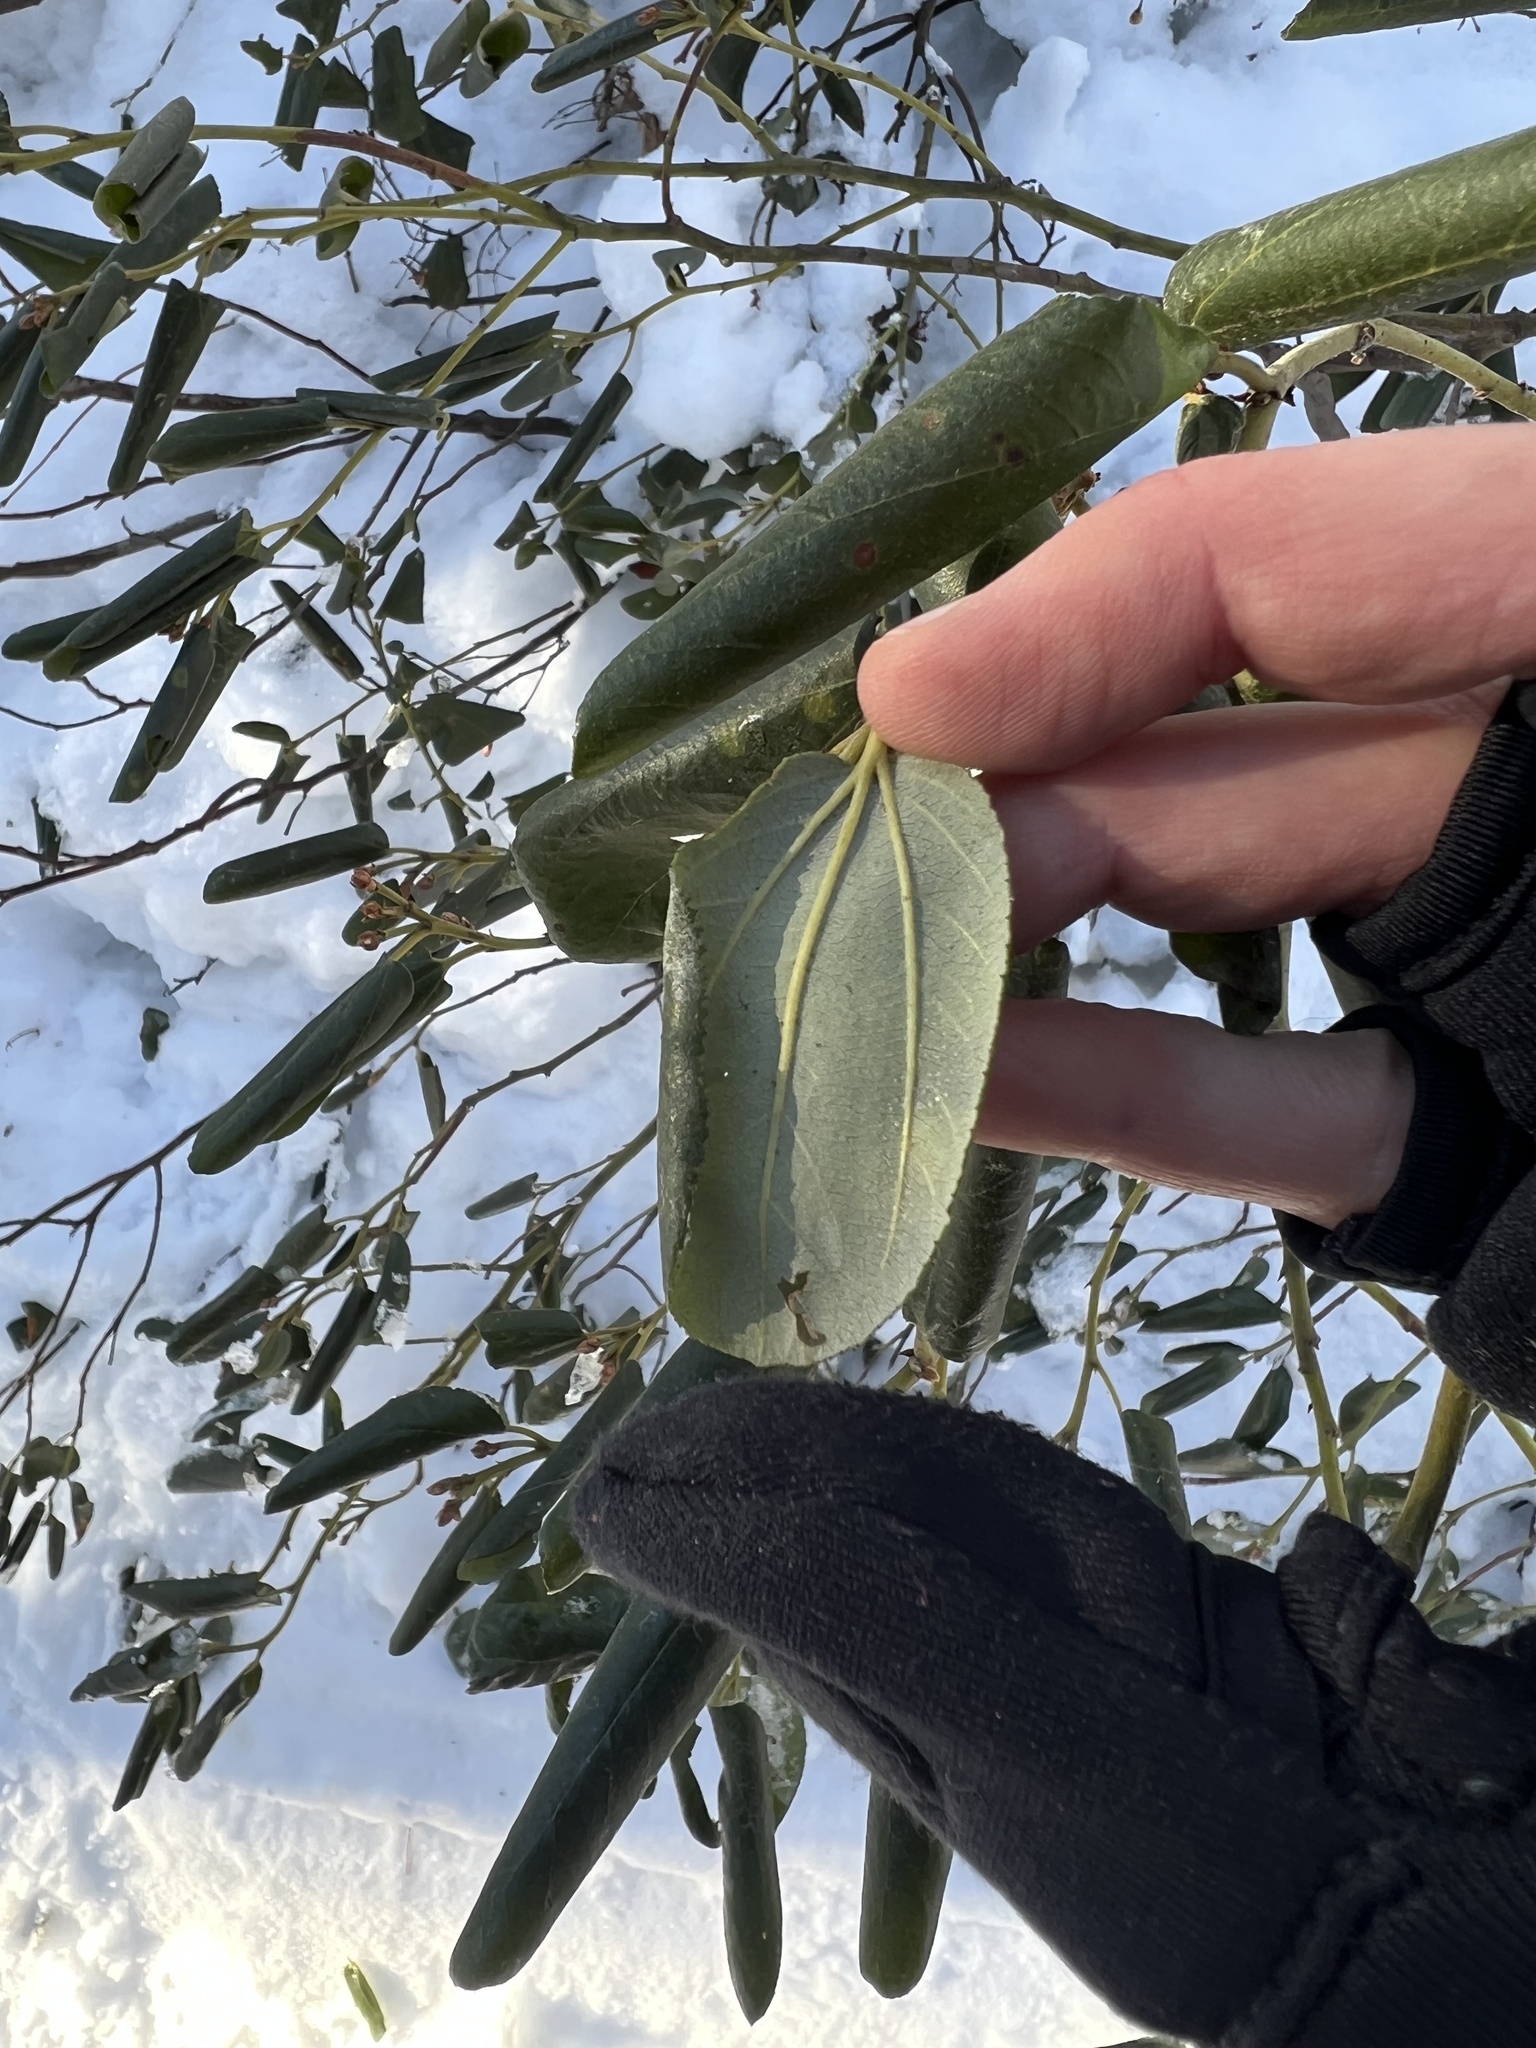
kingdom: Plantae
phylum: Tracheophyta
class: Magnoliopsida
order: Rosales
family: Rhamnaceae
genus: Ceanothus
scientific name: Ceanothus velutinus
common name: Snowbrush
